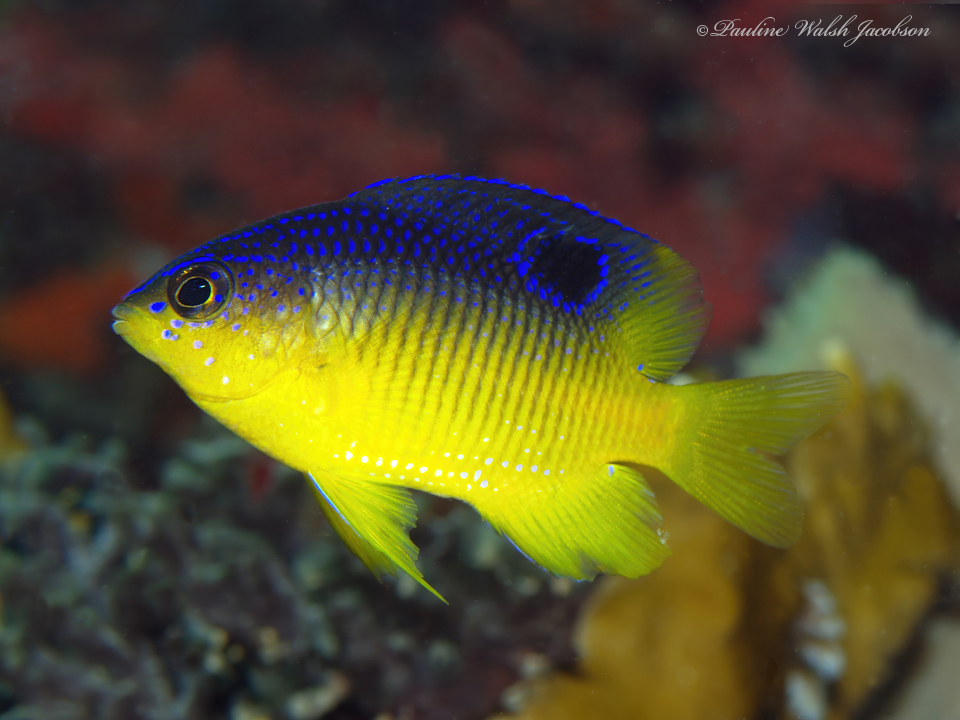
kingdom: Animalia
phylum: Chordata
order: Perciformes
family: Pomacentridae
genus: Stegastes
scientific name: Stegastes xanthurus
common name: Cocoa damselfish
